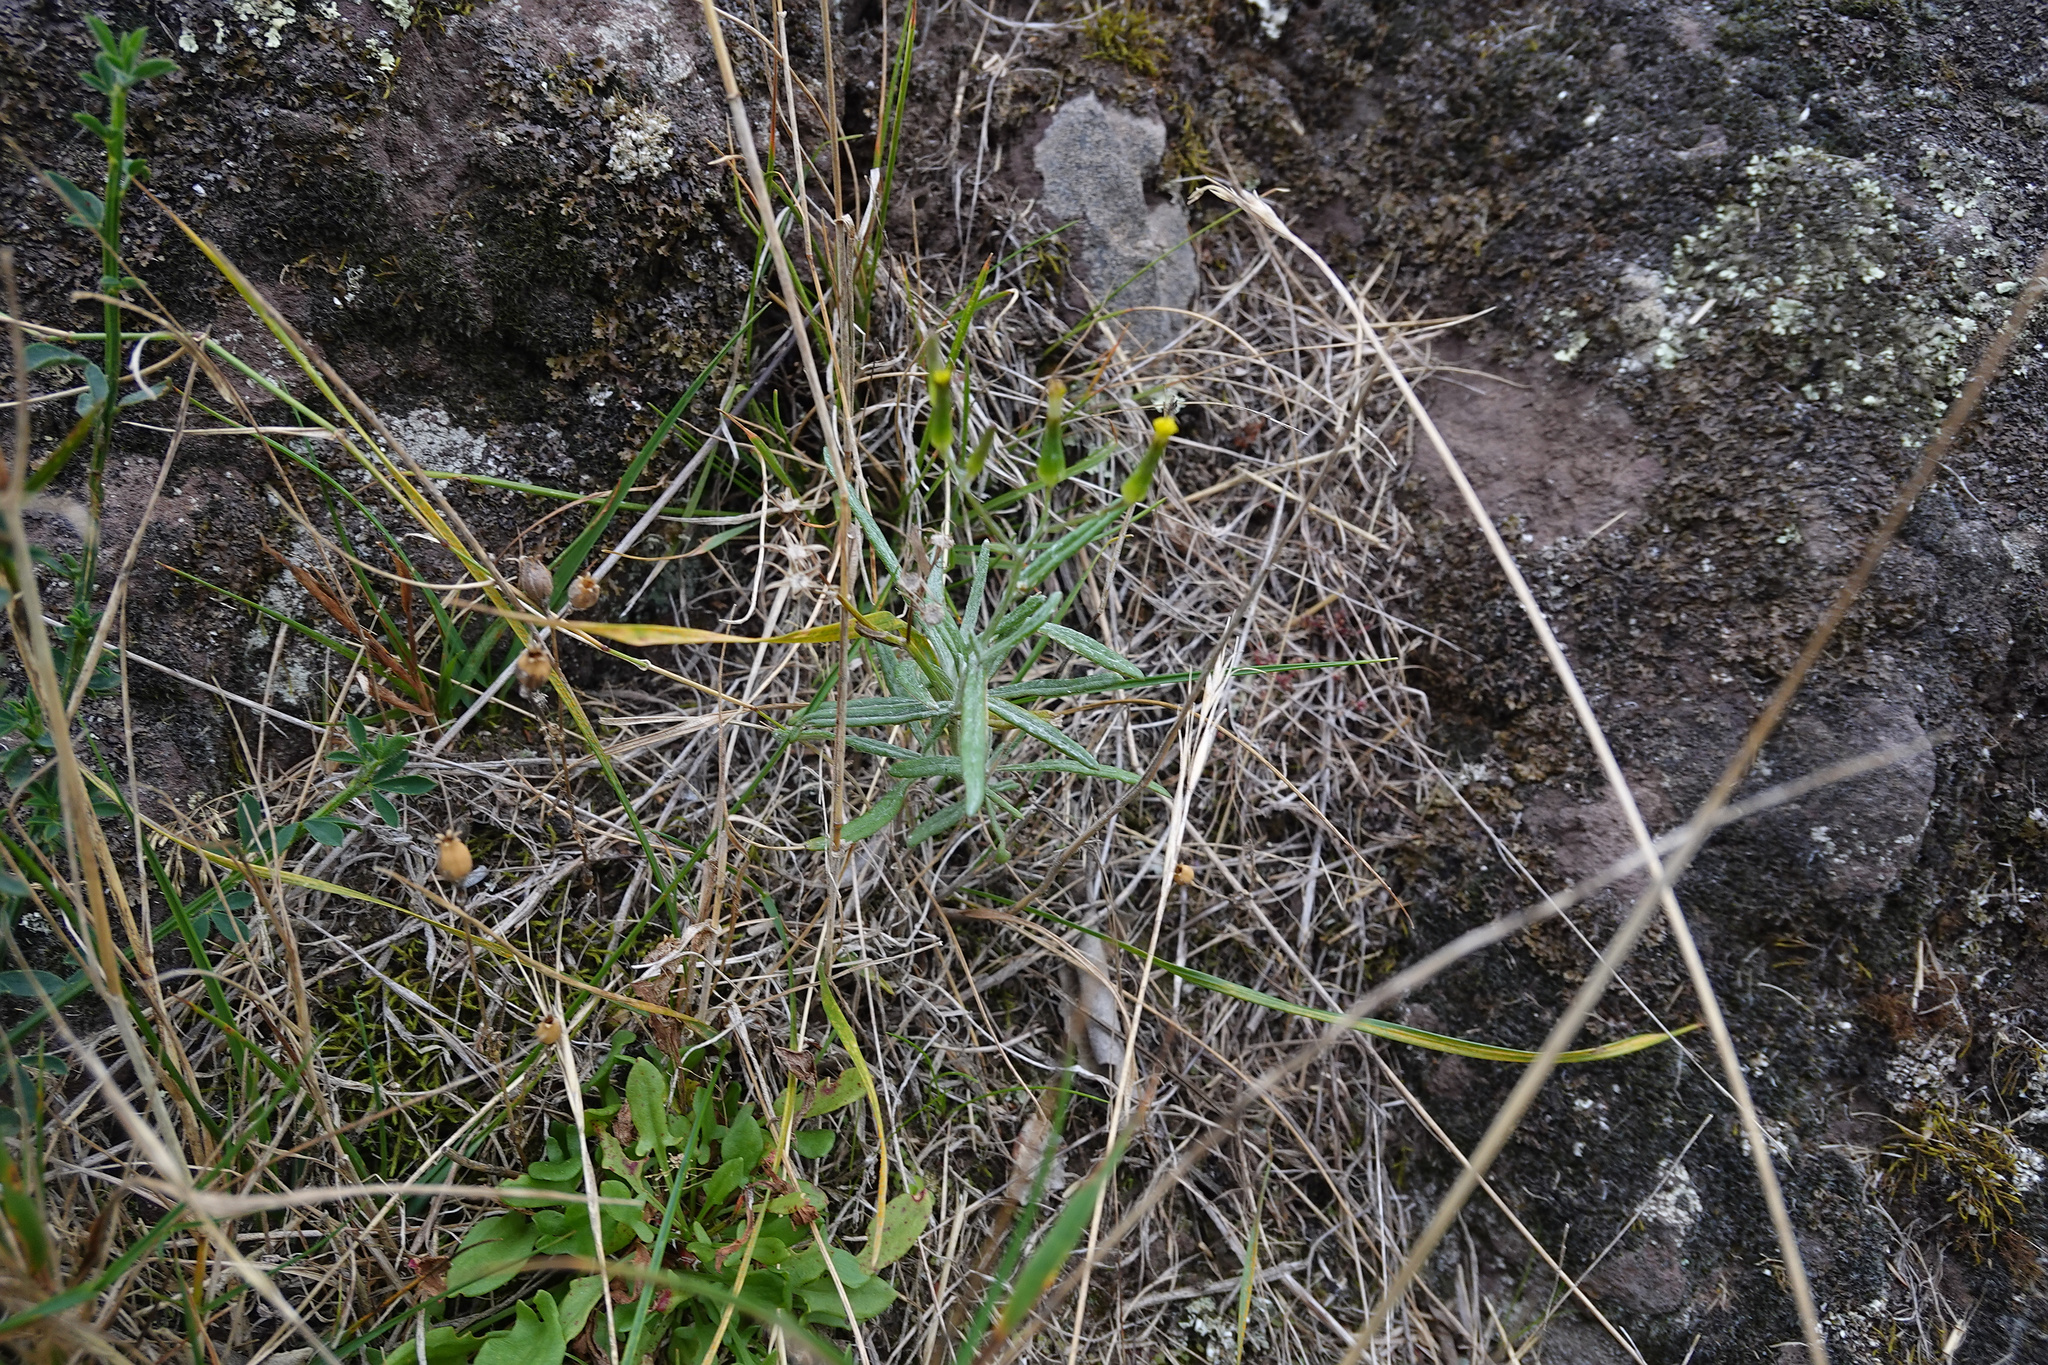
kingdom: Plantae
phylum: Tracheophyta
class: Magnoliopsida
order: Asterales
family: Asteraceae
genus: Senecio
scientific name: Senecio quadridentatus
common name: Cotton fireweed
